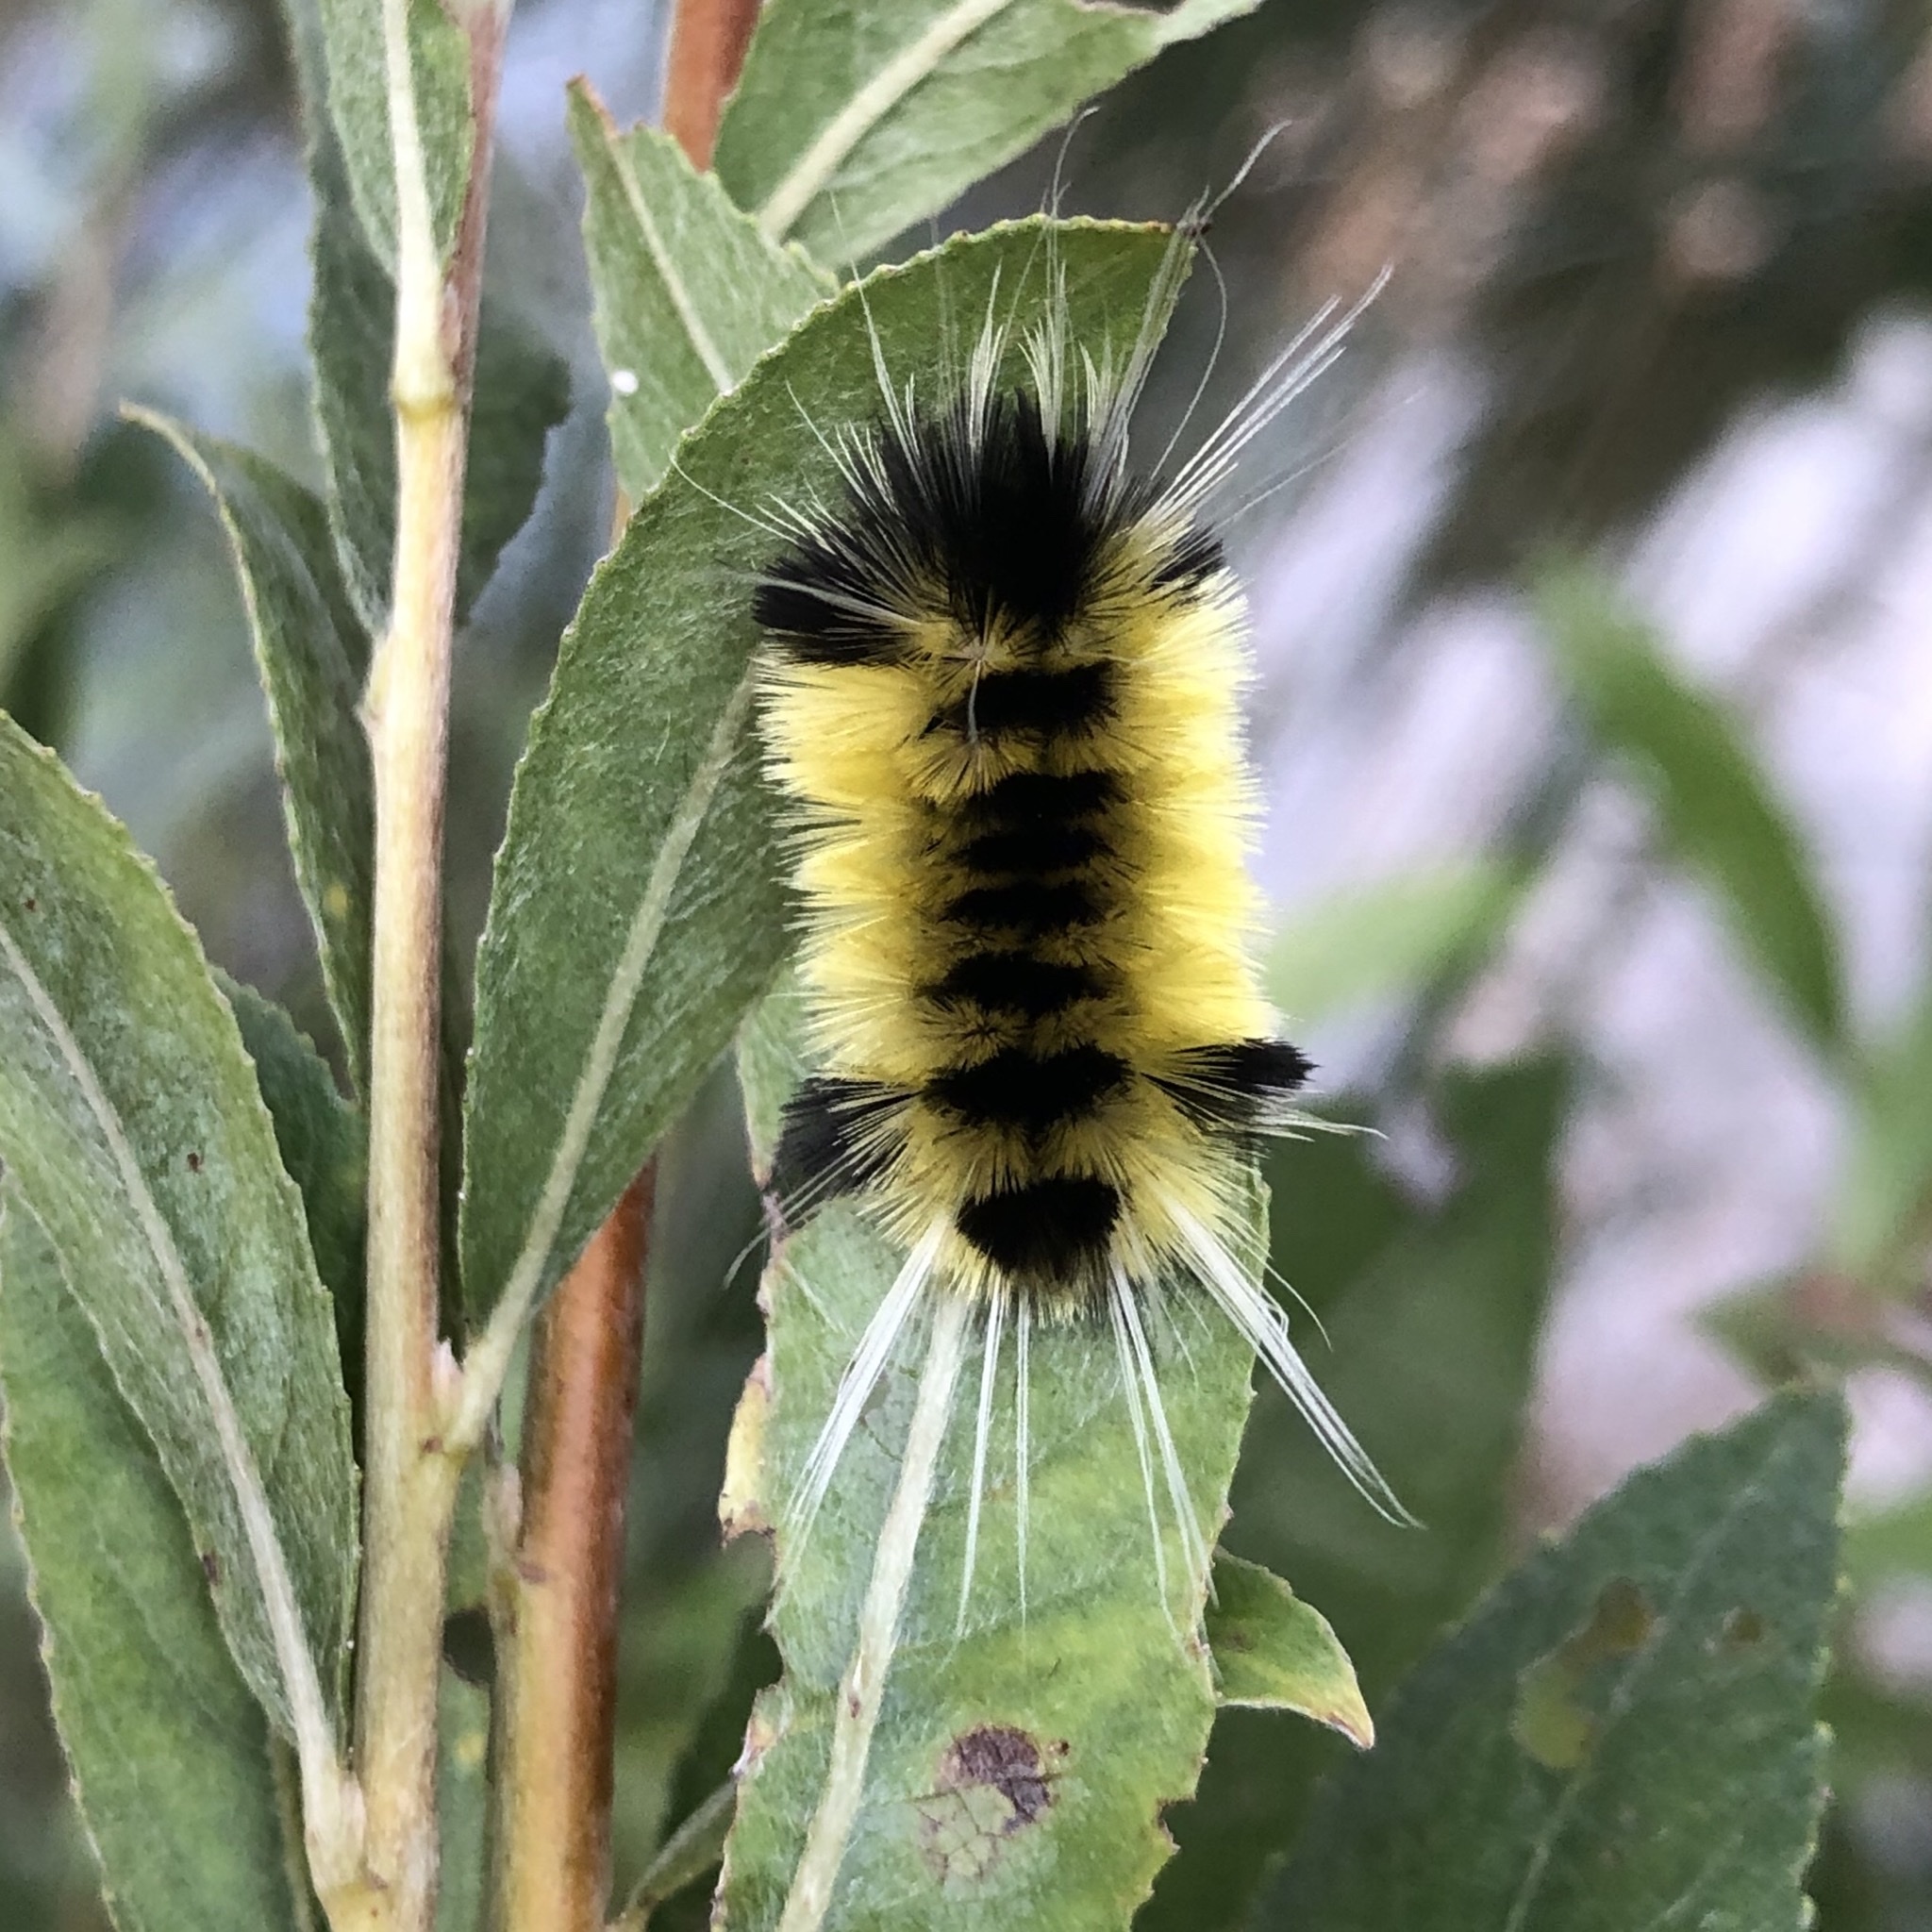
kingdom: Animalia
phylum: Arthropoda
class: Insecta
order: Lepidoptera
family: Erebidae
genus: Lophocampa
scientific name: Lophocampa maculata
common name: Spotted tussock moth
